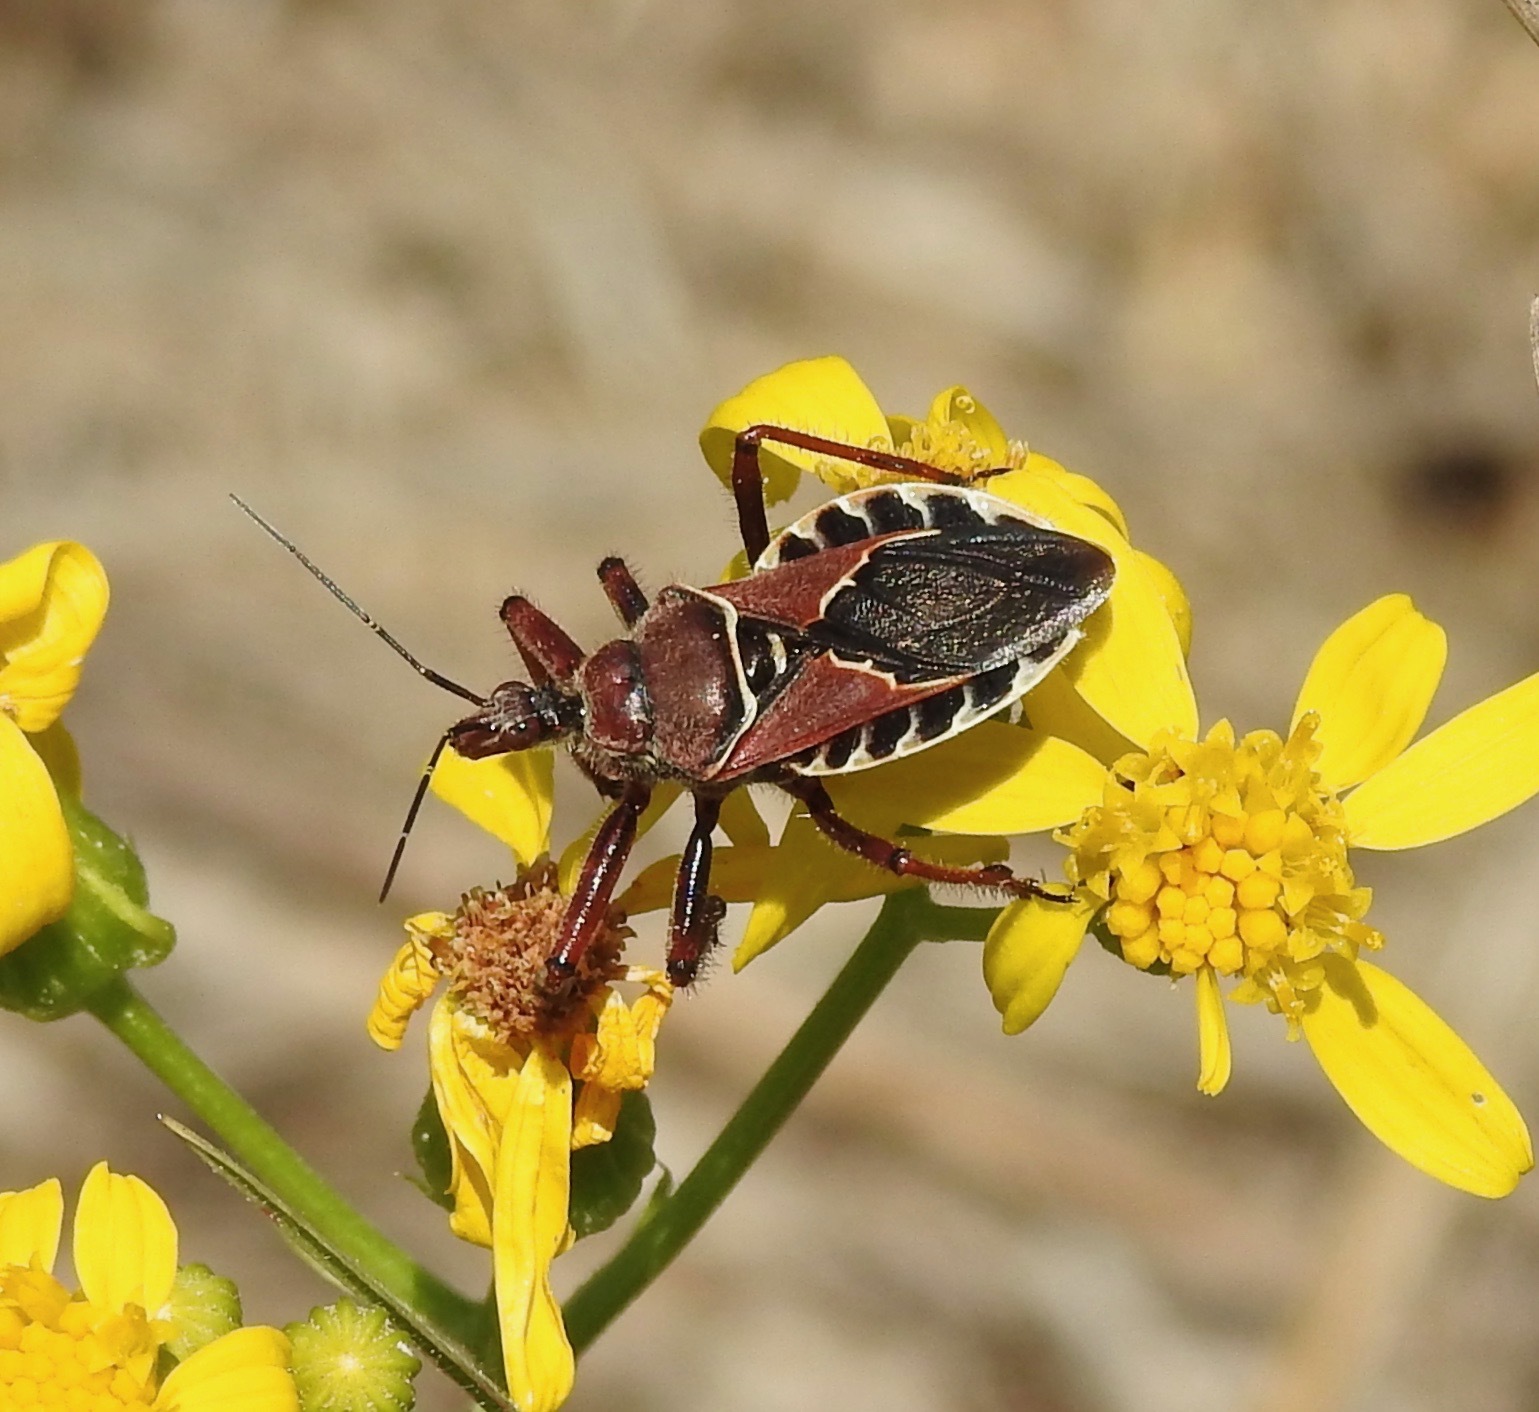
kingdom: Animalia
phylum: Arthropoda
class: Insecta
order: Hemiptera
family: Reduviidae
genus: Apiomerus
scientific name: Apiomerus spissipes
